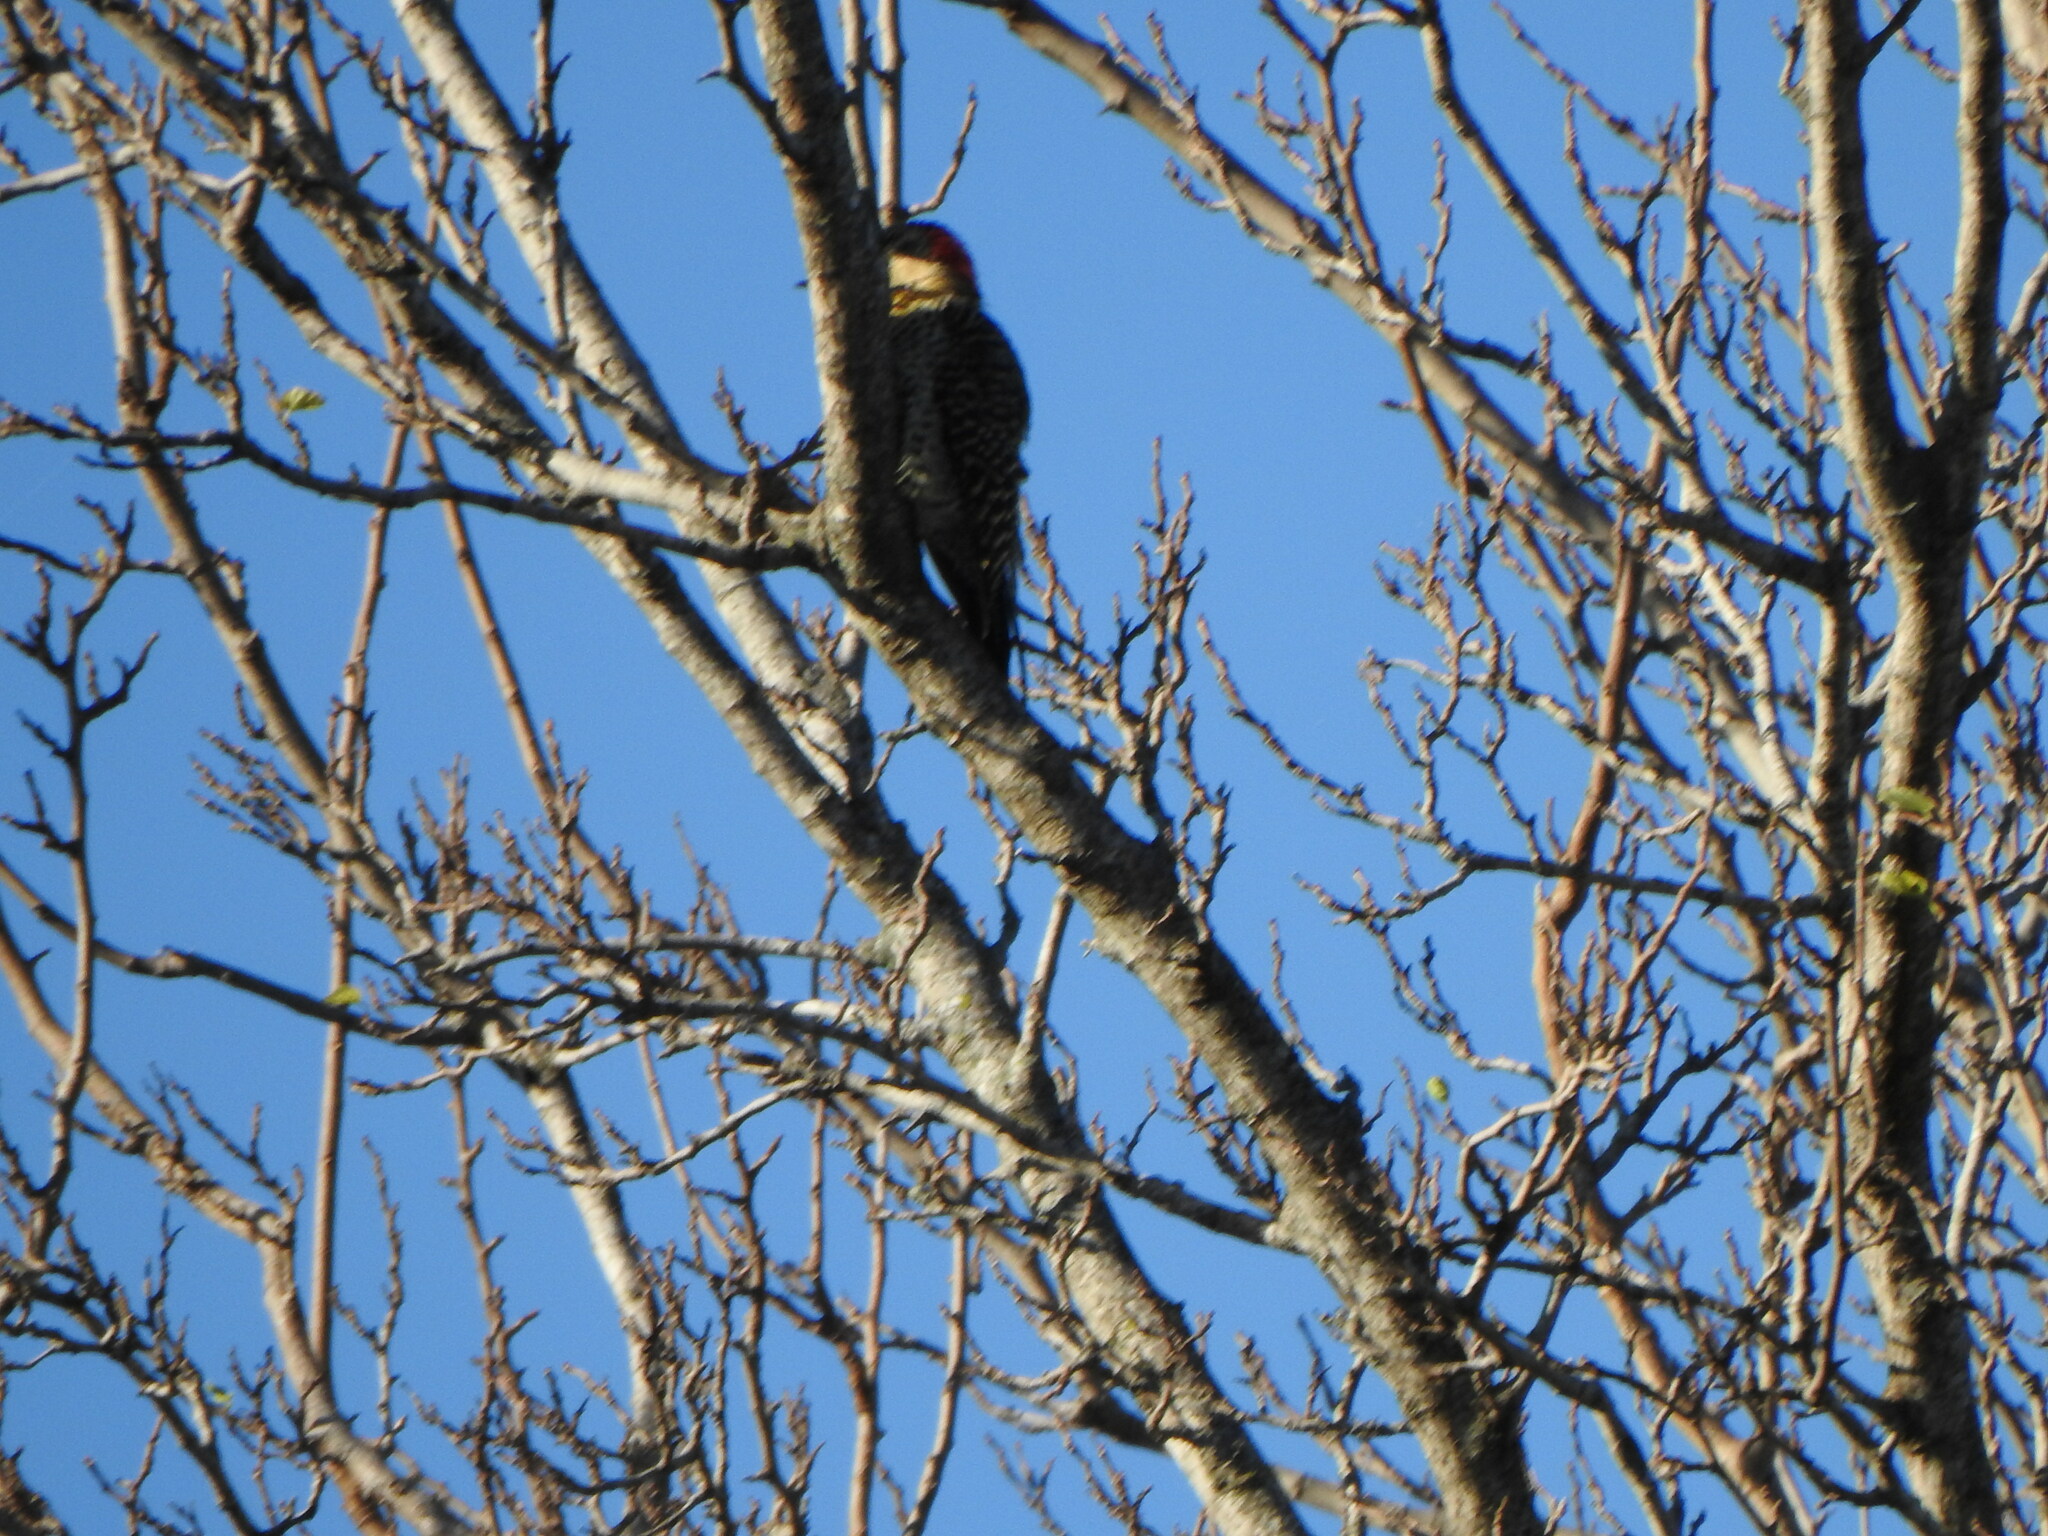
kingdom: Animalia
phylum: Chordata
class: Aves
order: Piciformes
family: Picidae
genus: Colaptes
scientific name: Colaptes melanochloros
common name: Green-barred woodpecker
